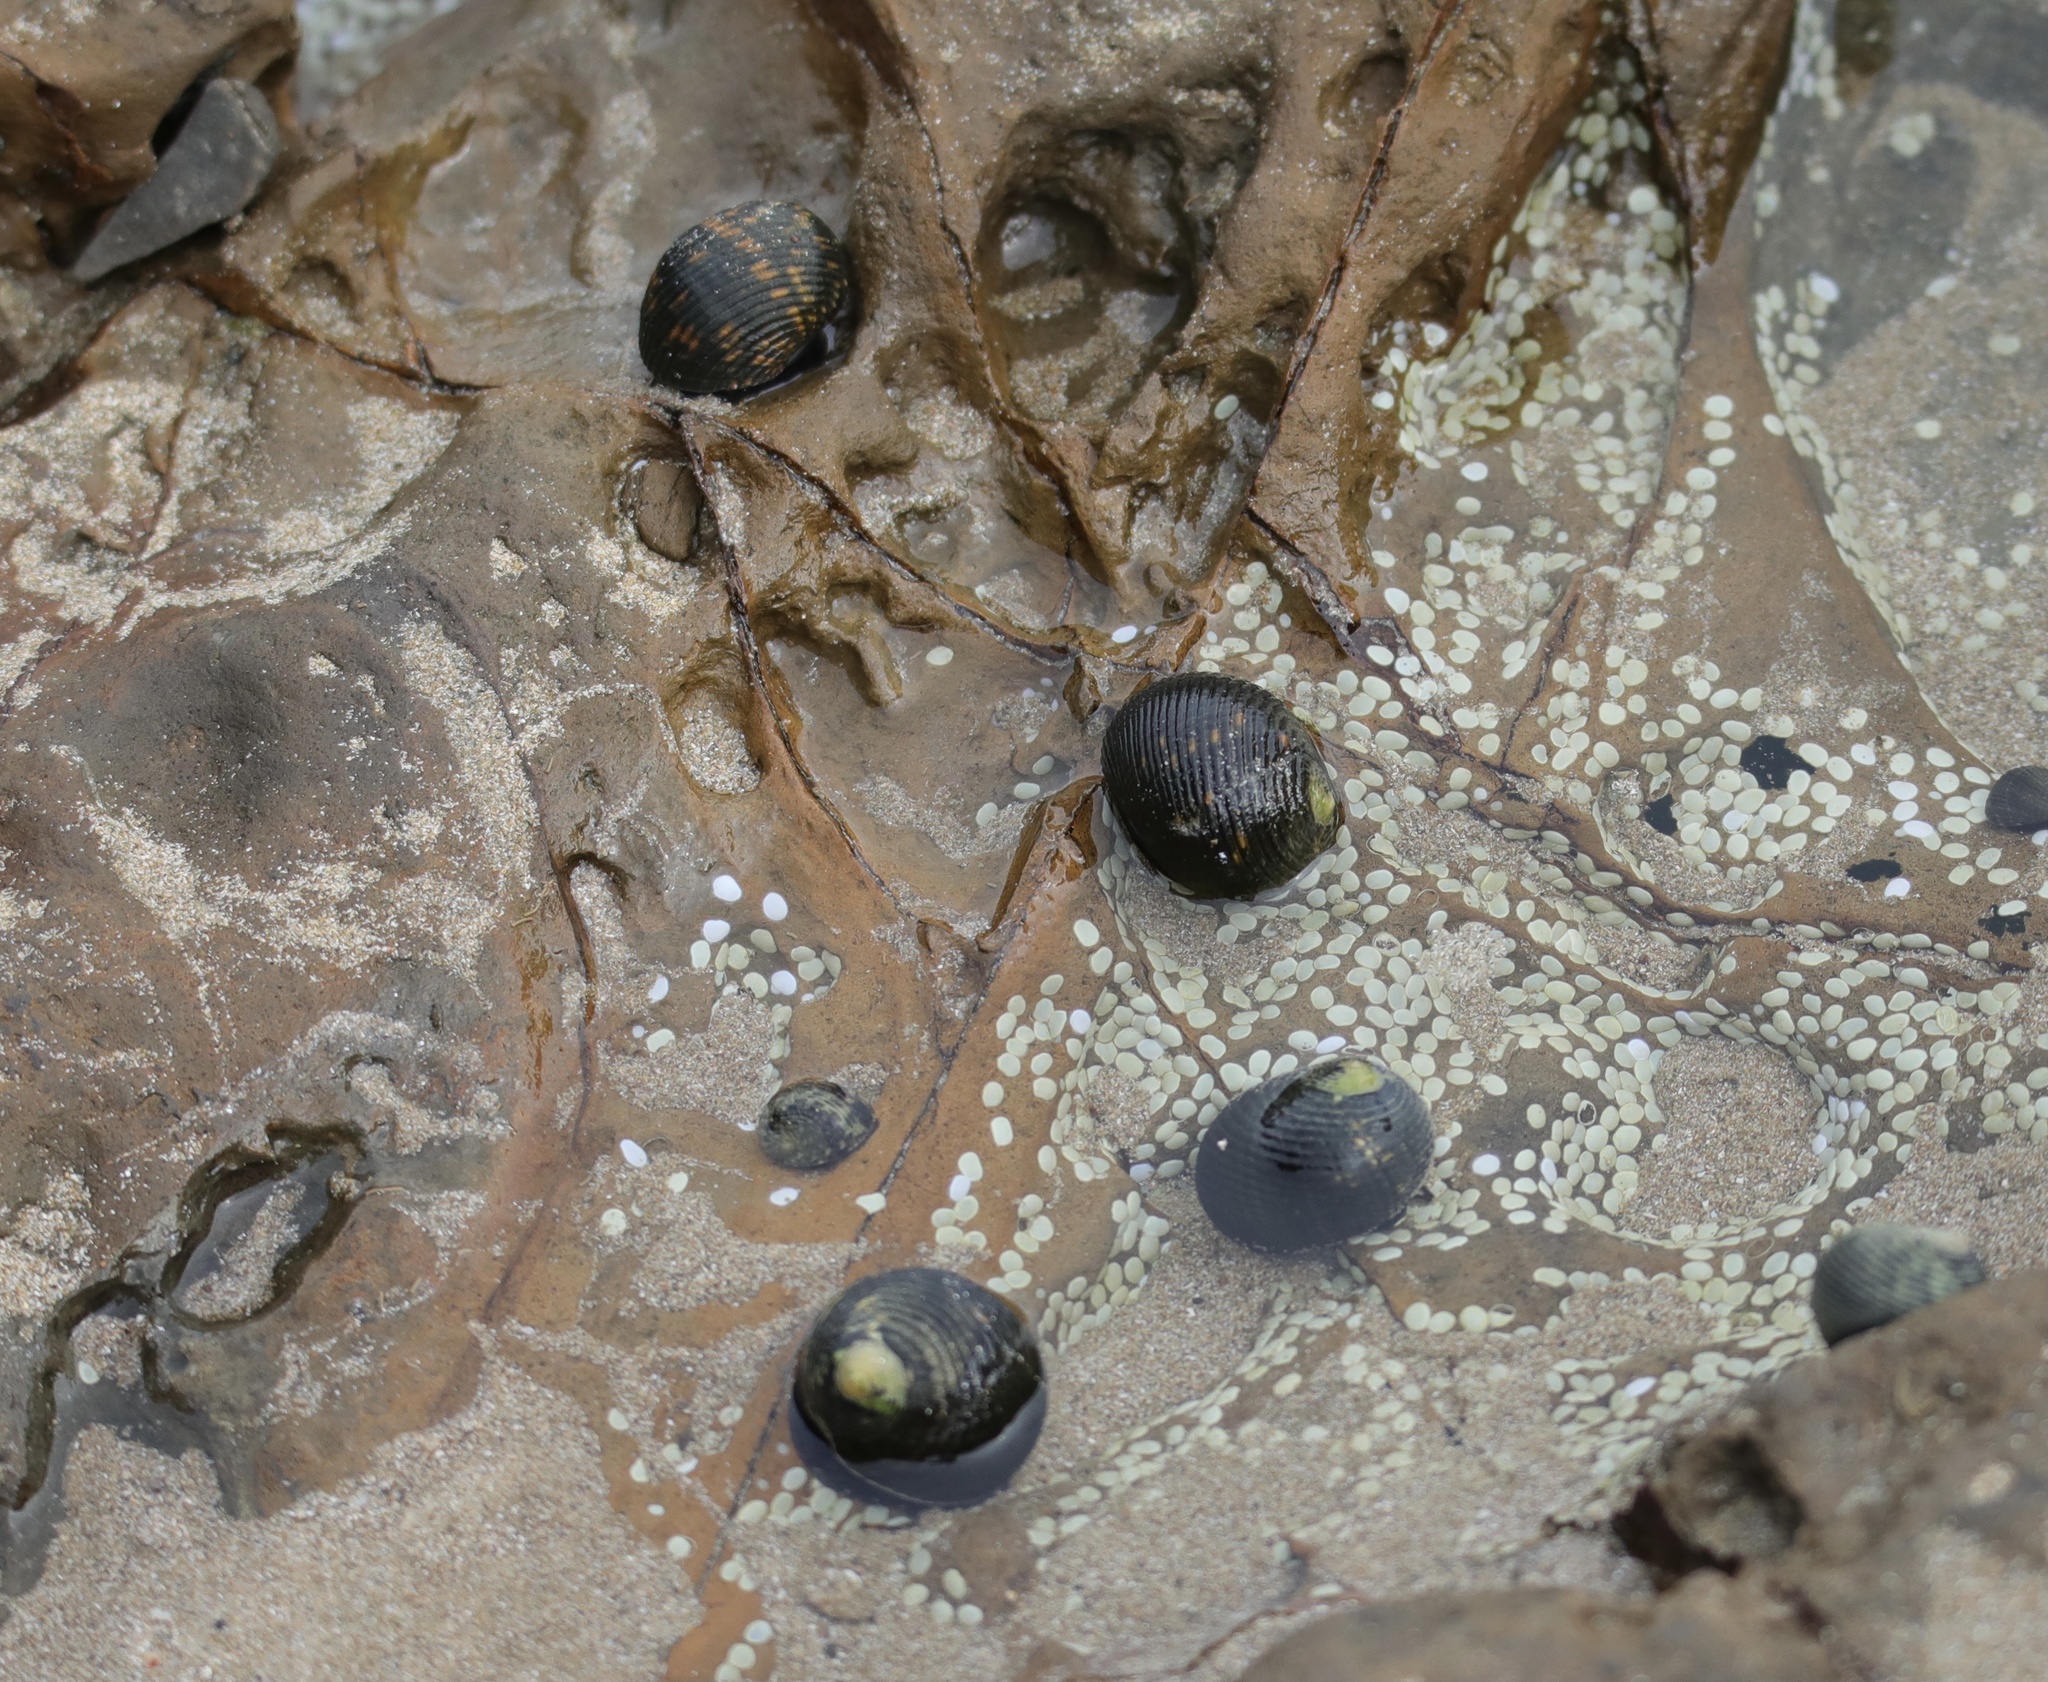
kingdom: Animalia
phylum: Mollusca
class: Gastropoda
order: Cycloneritida
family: Neritidae
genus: Nerita
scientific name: Nerita scabricosta
